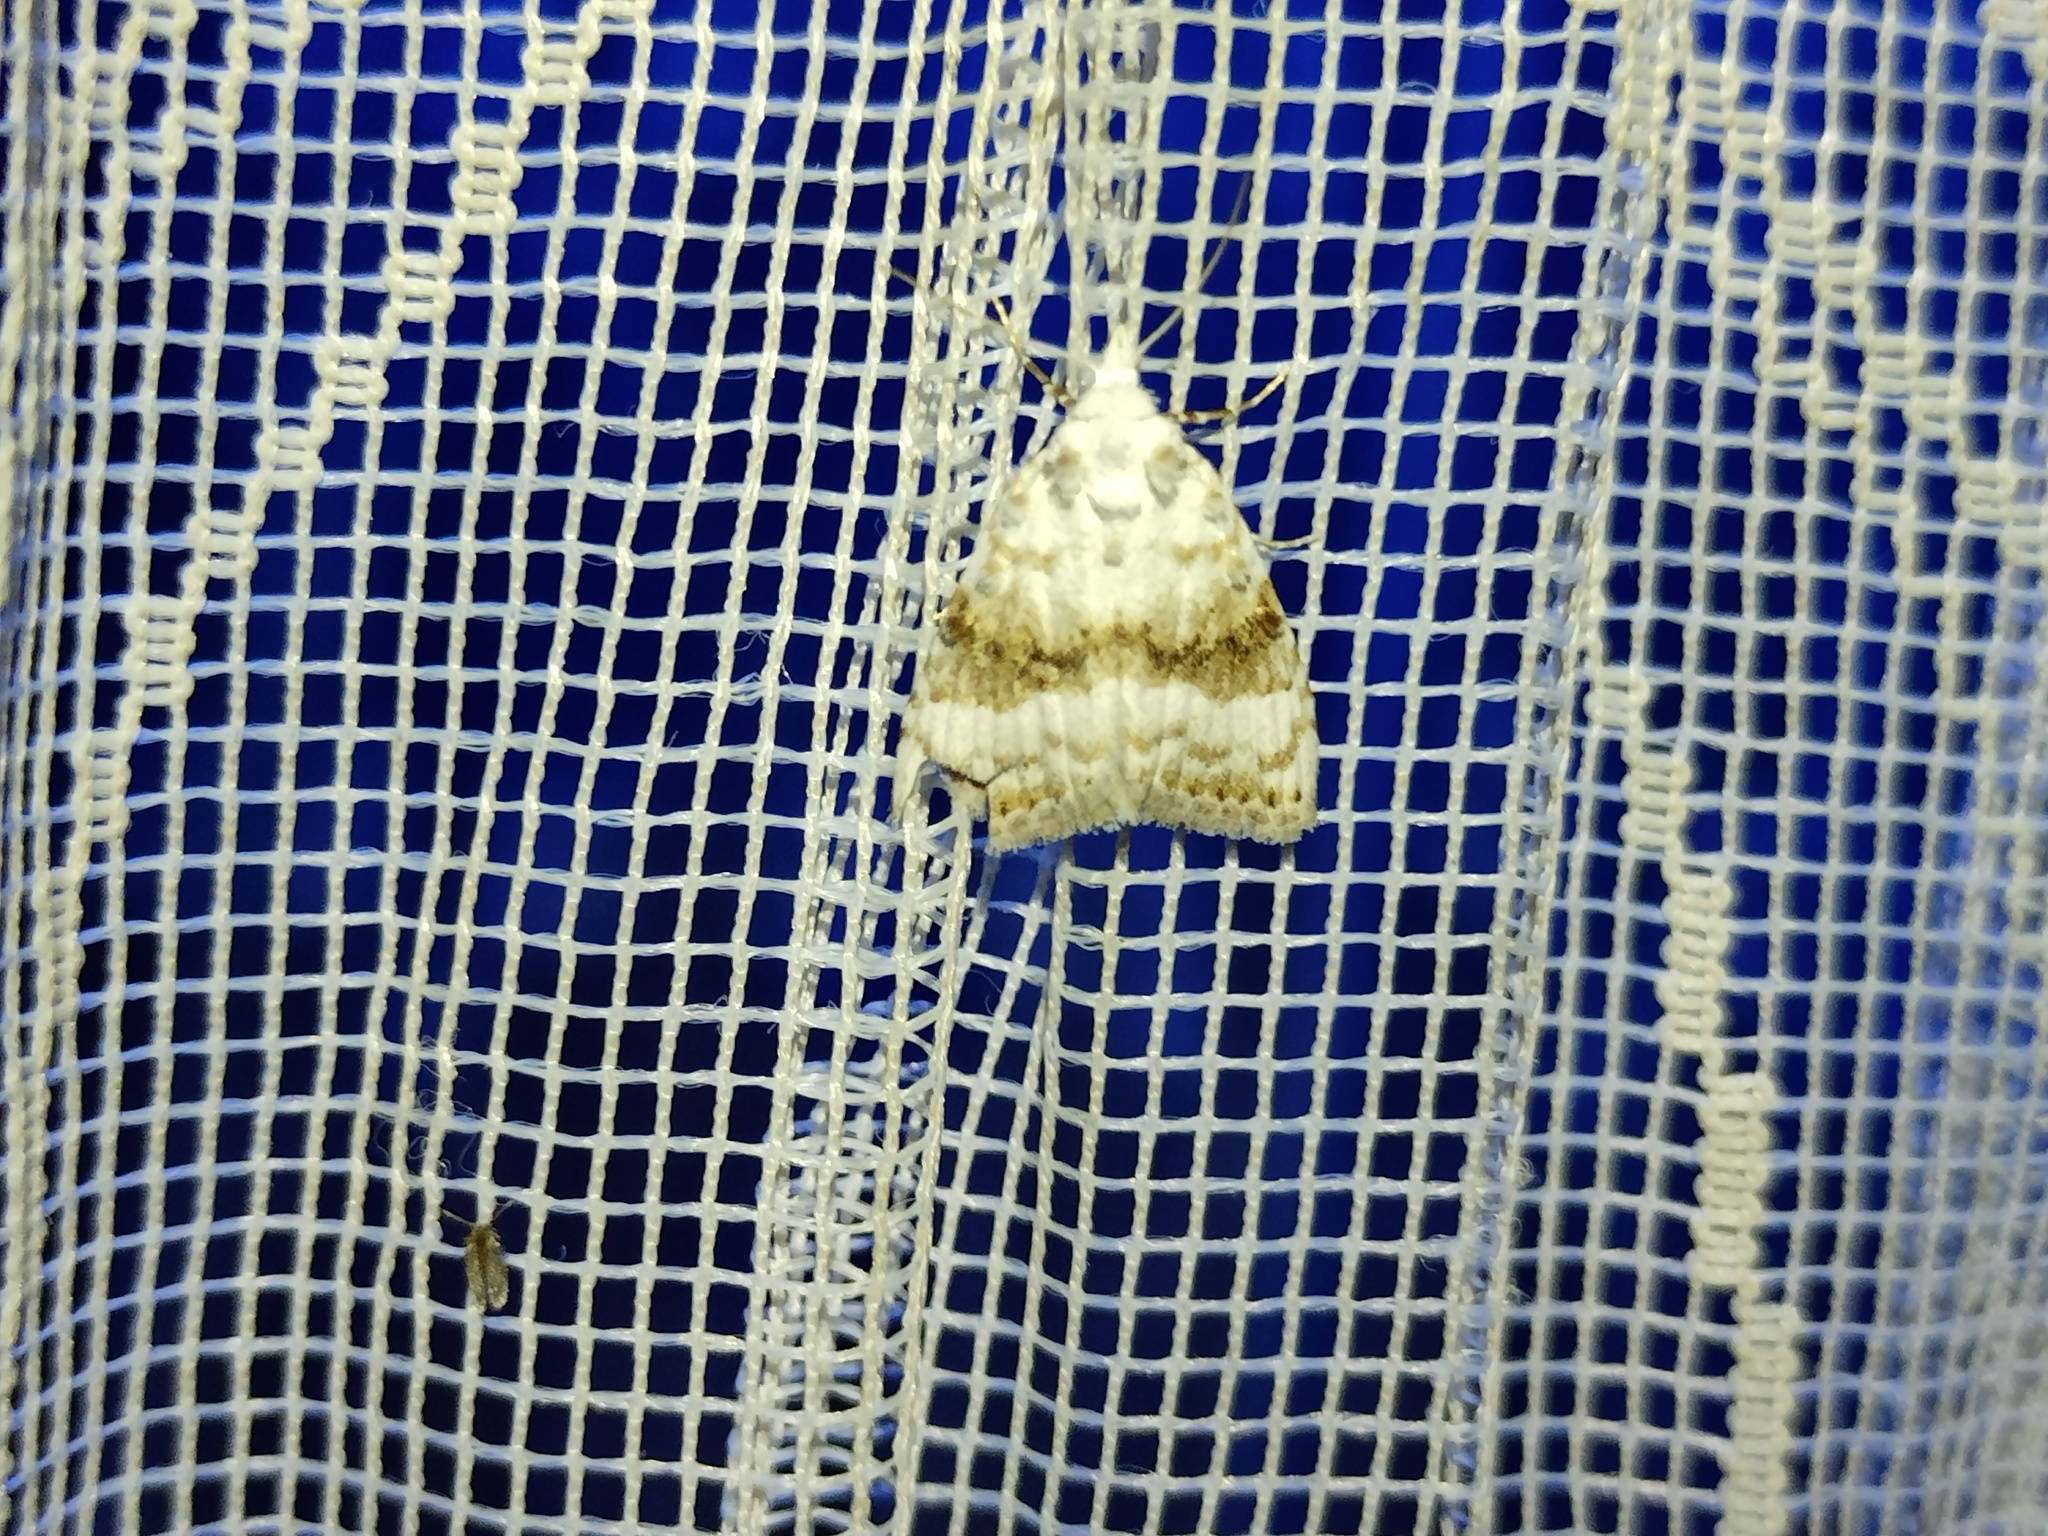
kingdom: Animalia
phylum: Arthropoda
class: Insecta
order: Lepidoptera
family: Nolidae
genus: Meganola
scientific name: Meganola albula
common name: Kent black arches
